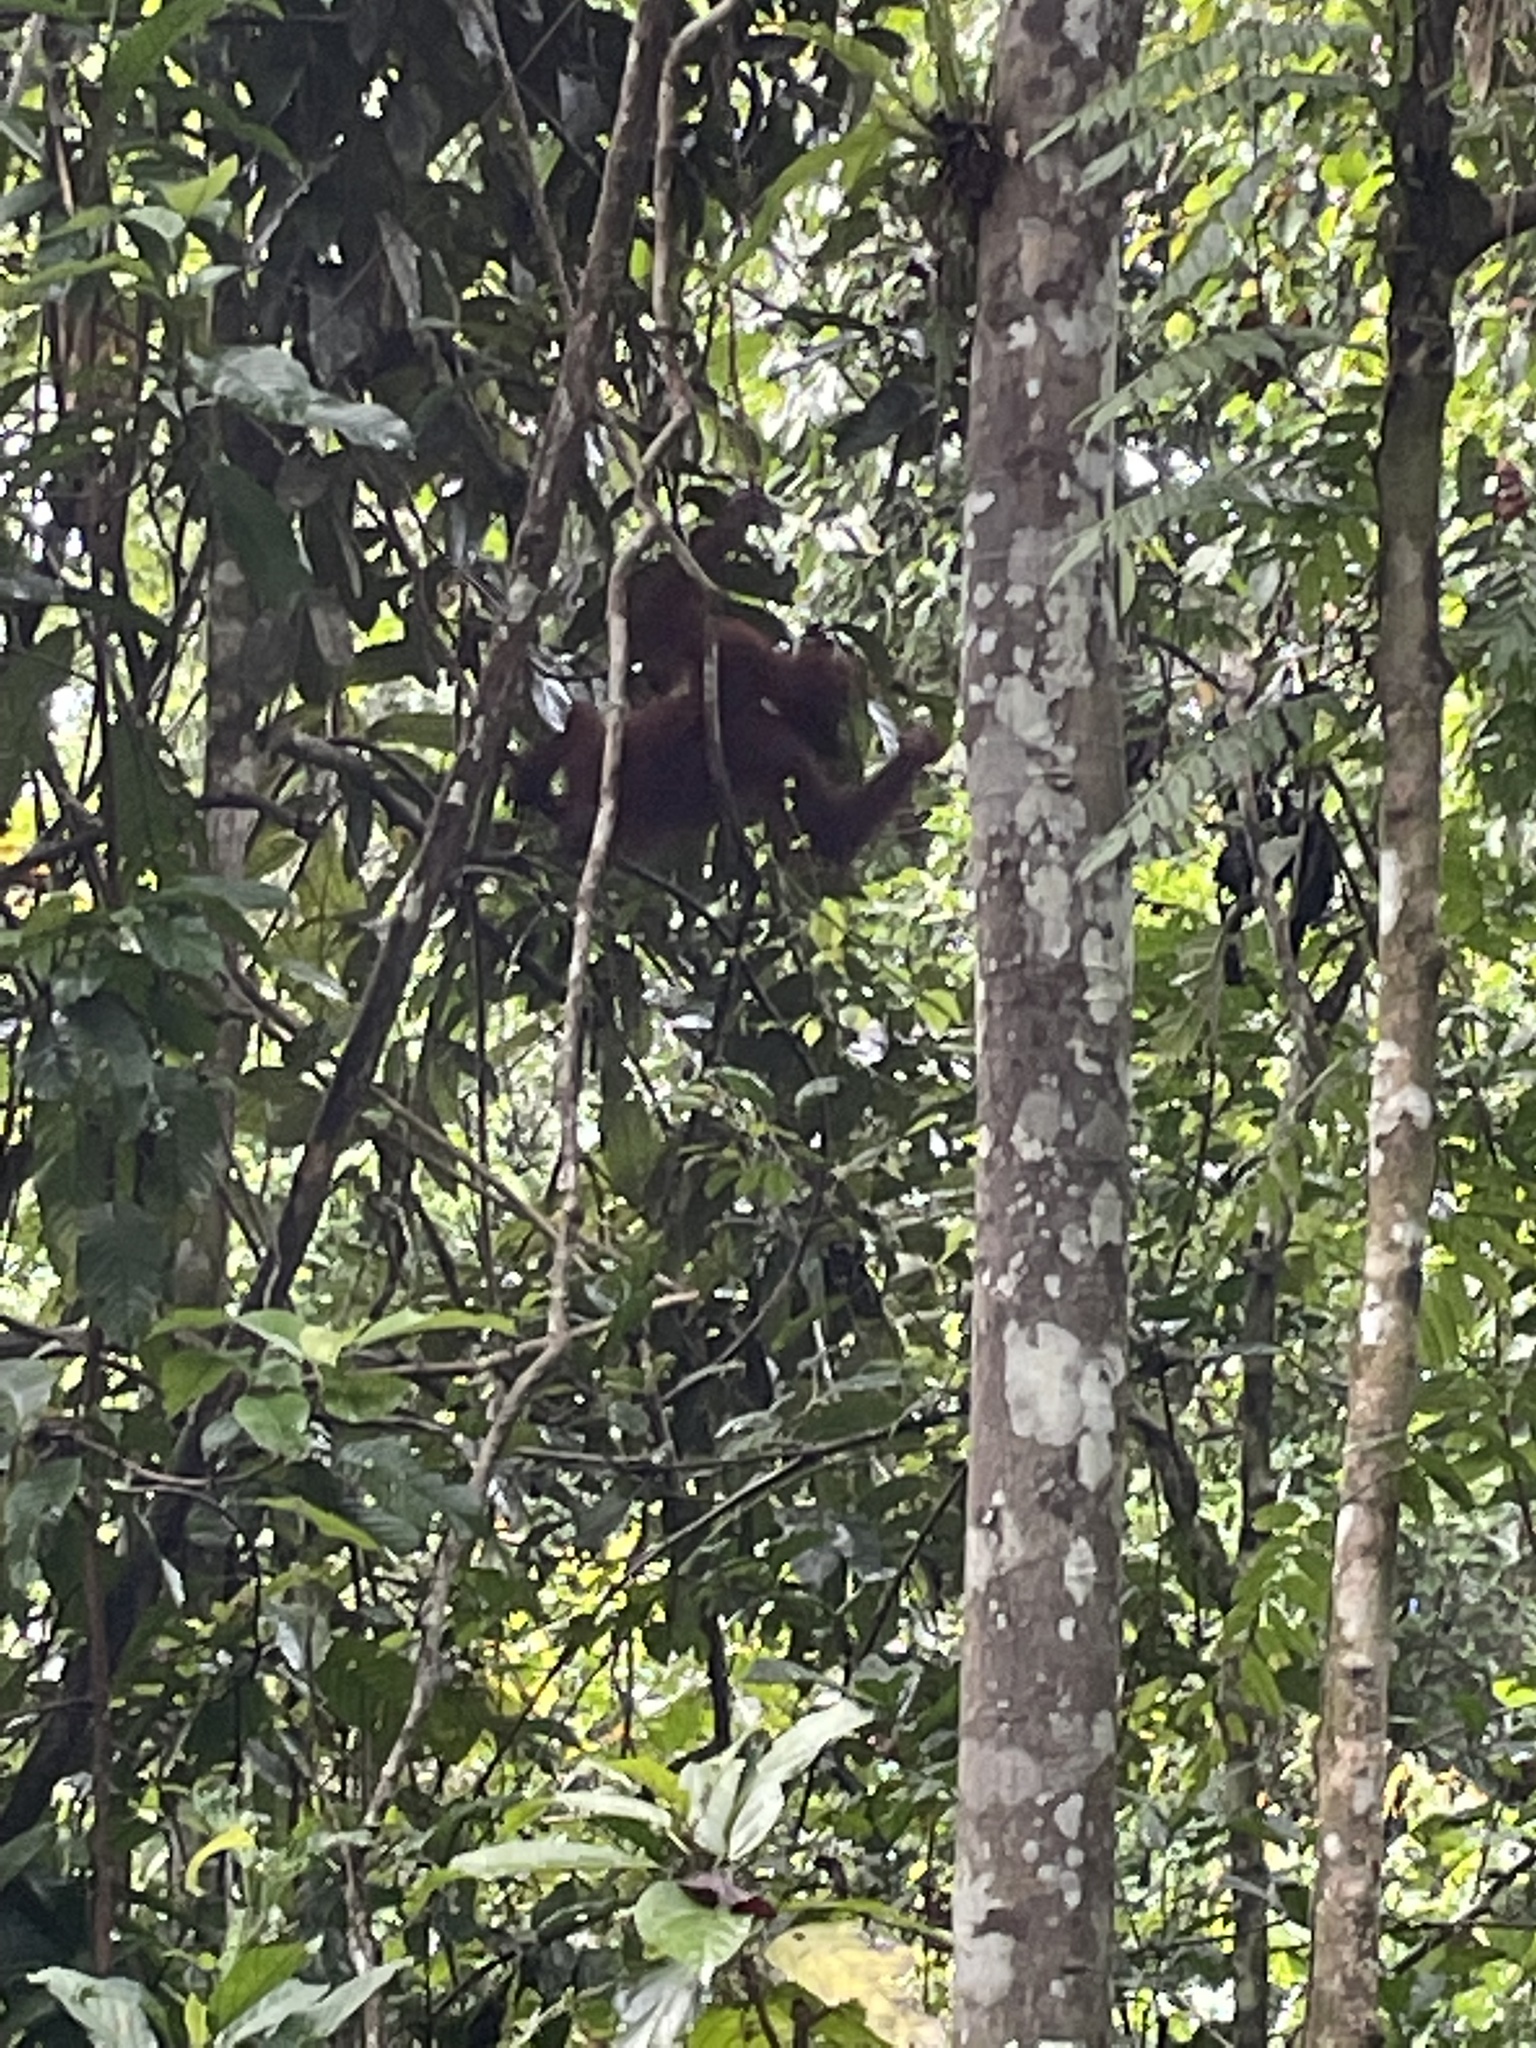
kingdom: Animalia
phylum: Chordata
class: Mammalia
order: Primates
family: Hominidae
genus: Pongo
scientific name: Pongo pygmaeus
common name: Bornean orangutan
